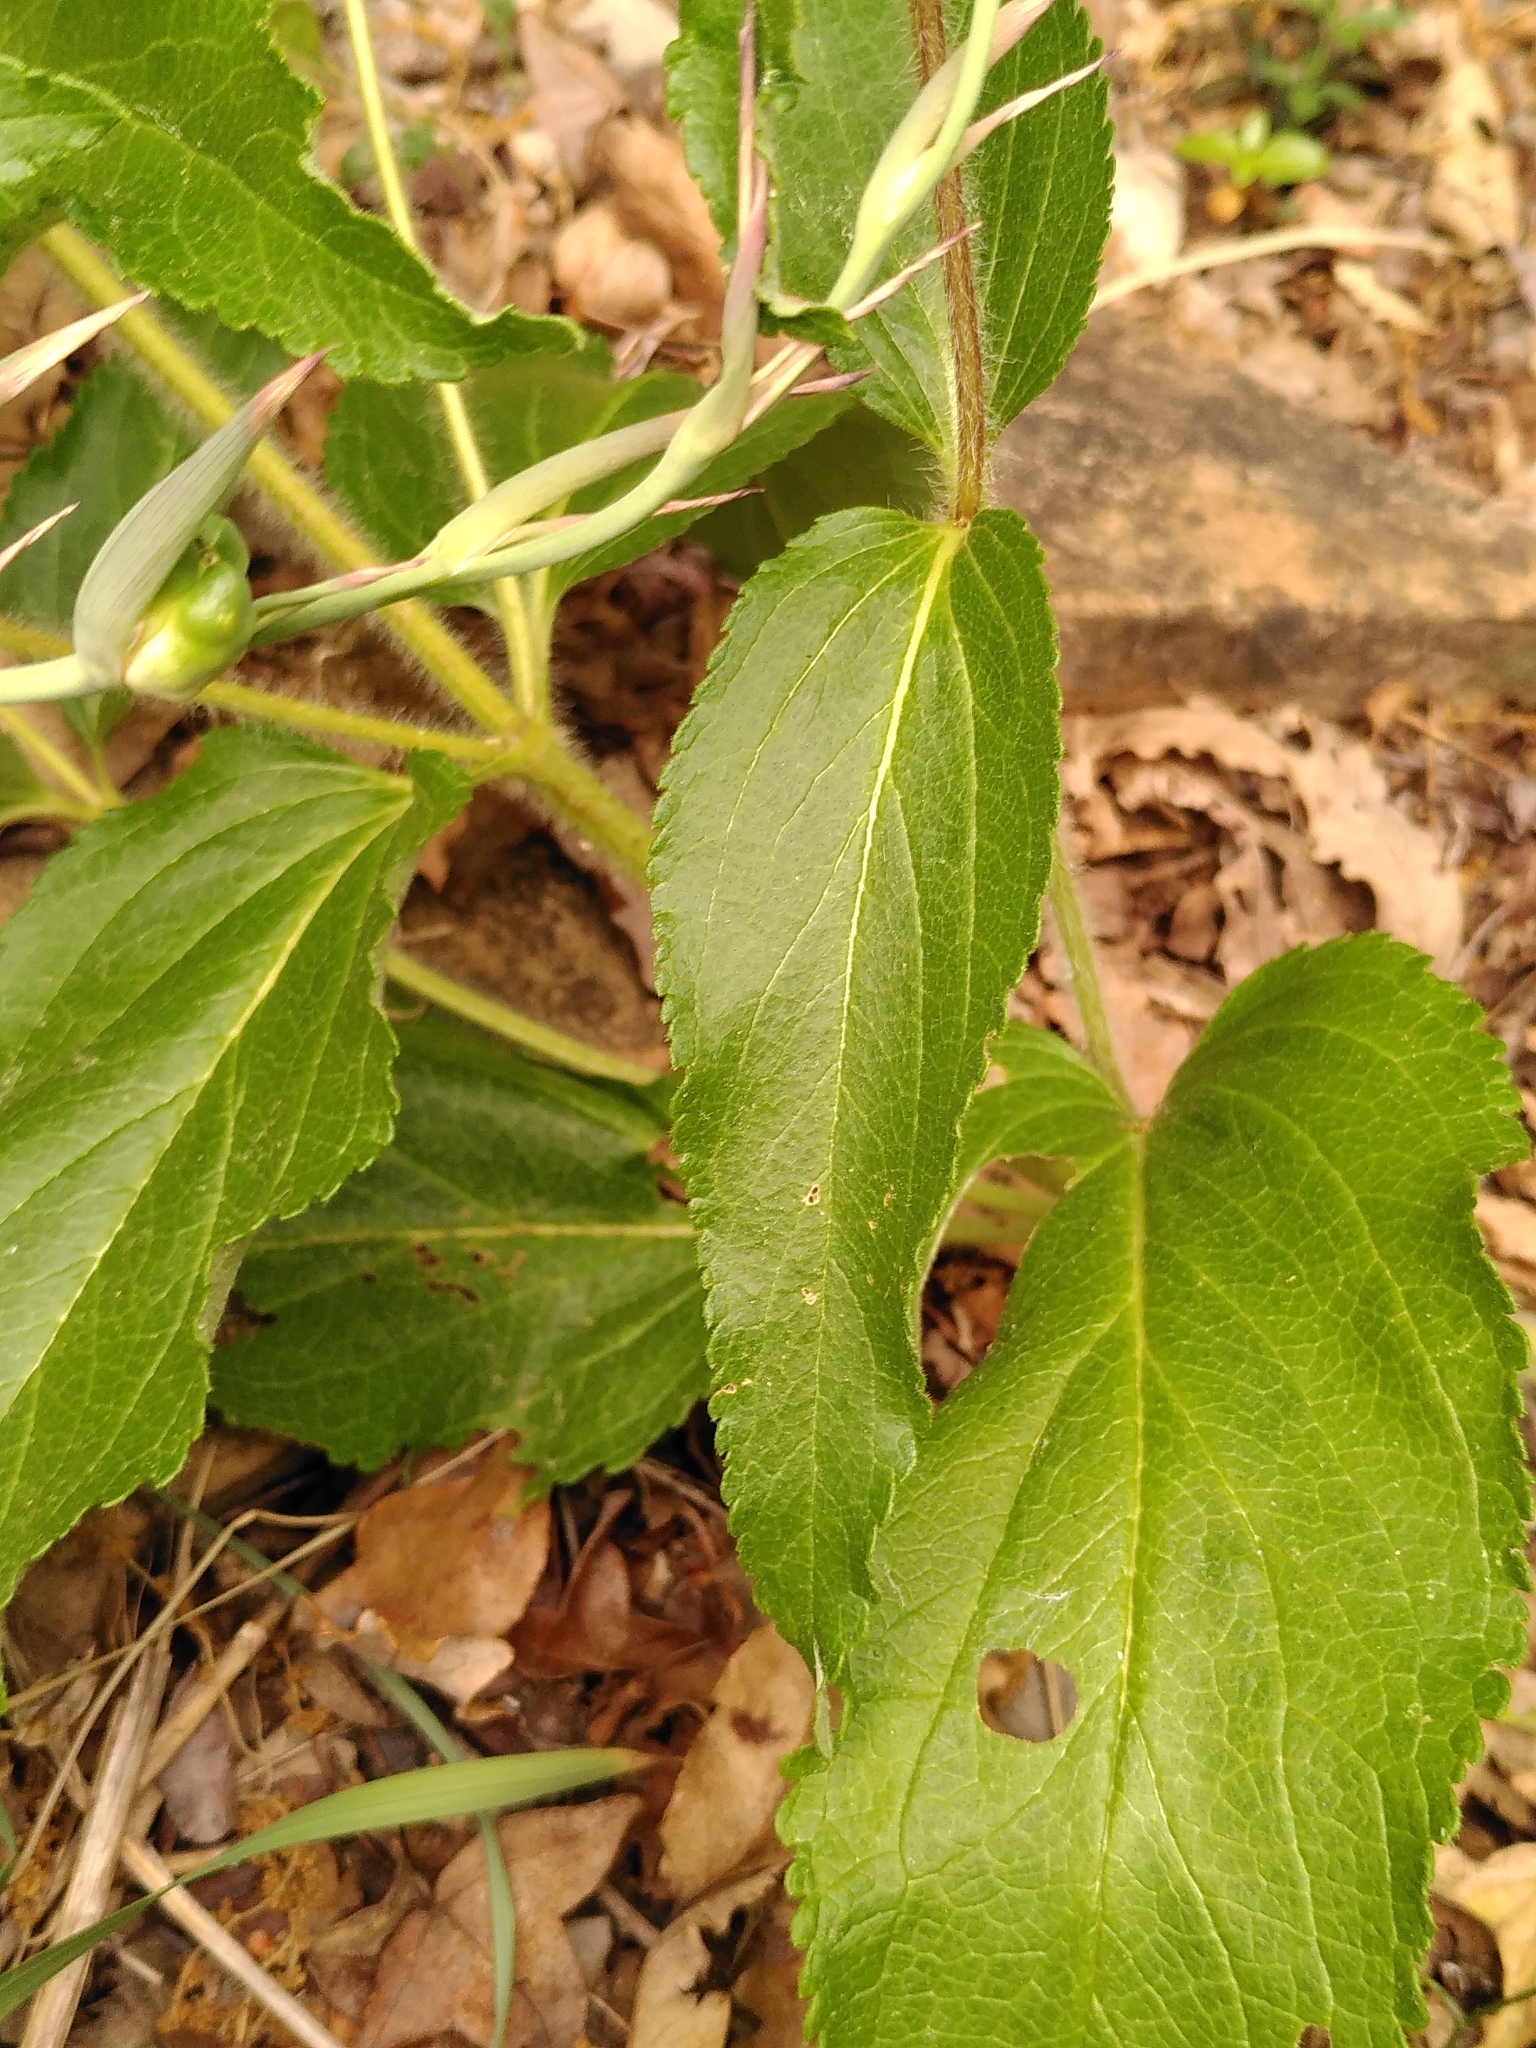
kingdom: Plantae
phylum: Tracheophyta
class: Magnoliopsida
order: Lamiales
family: Lamiaceae
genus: Phlomis
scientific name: Phlomis herba-venti
